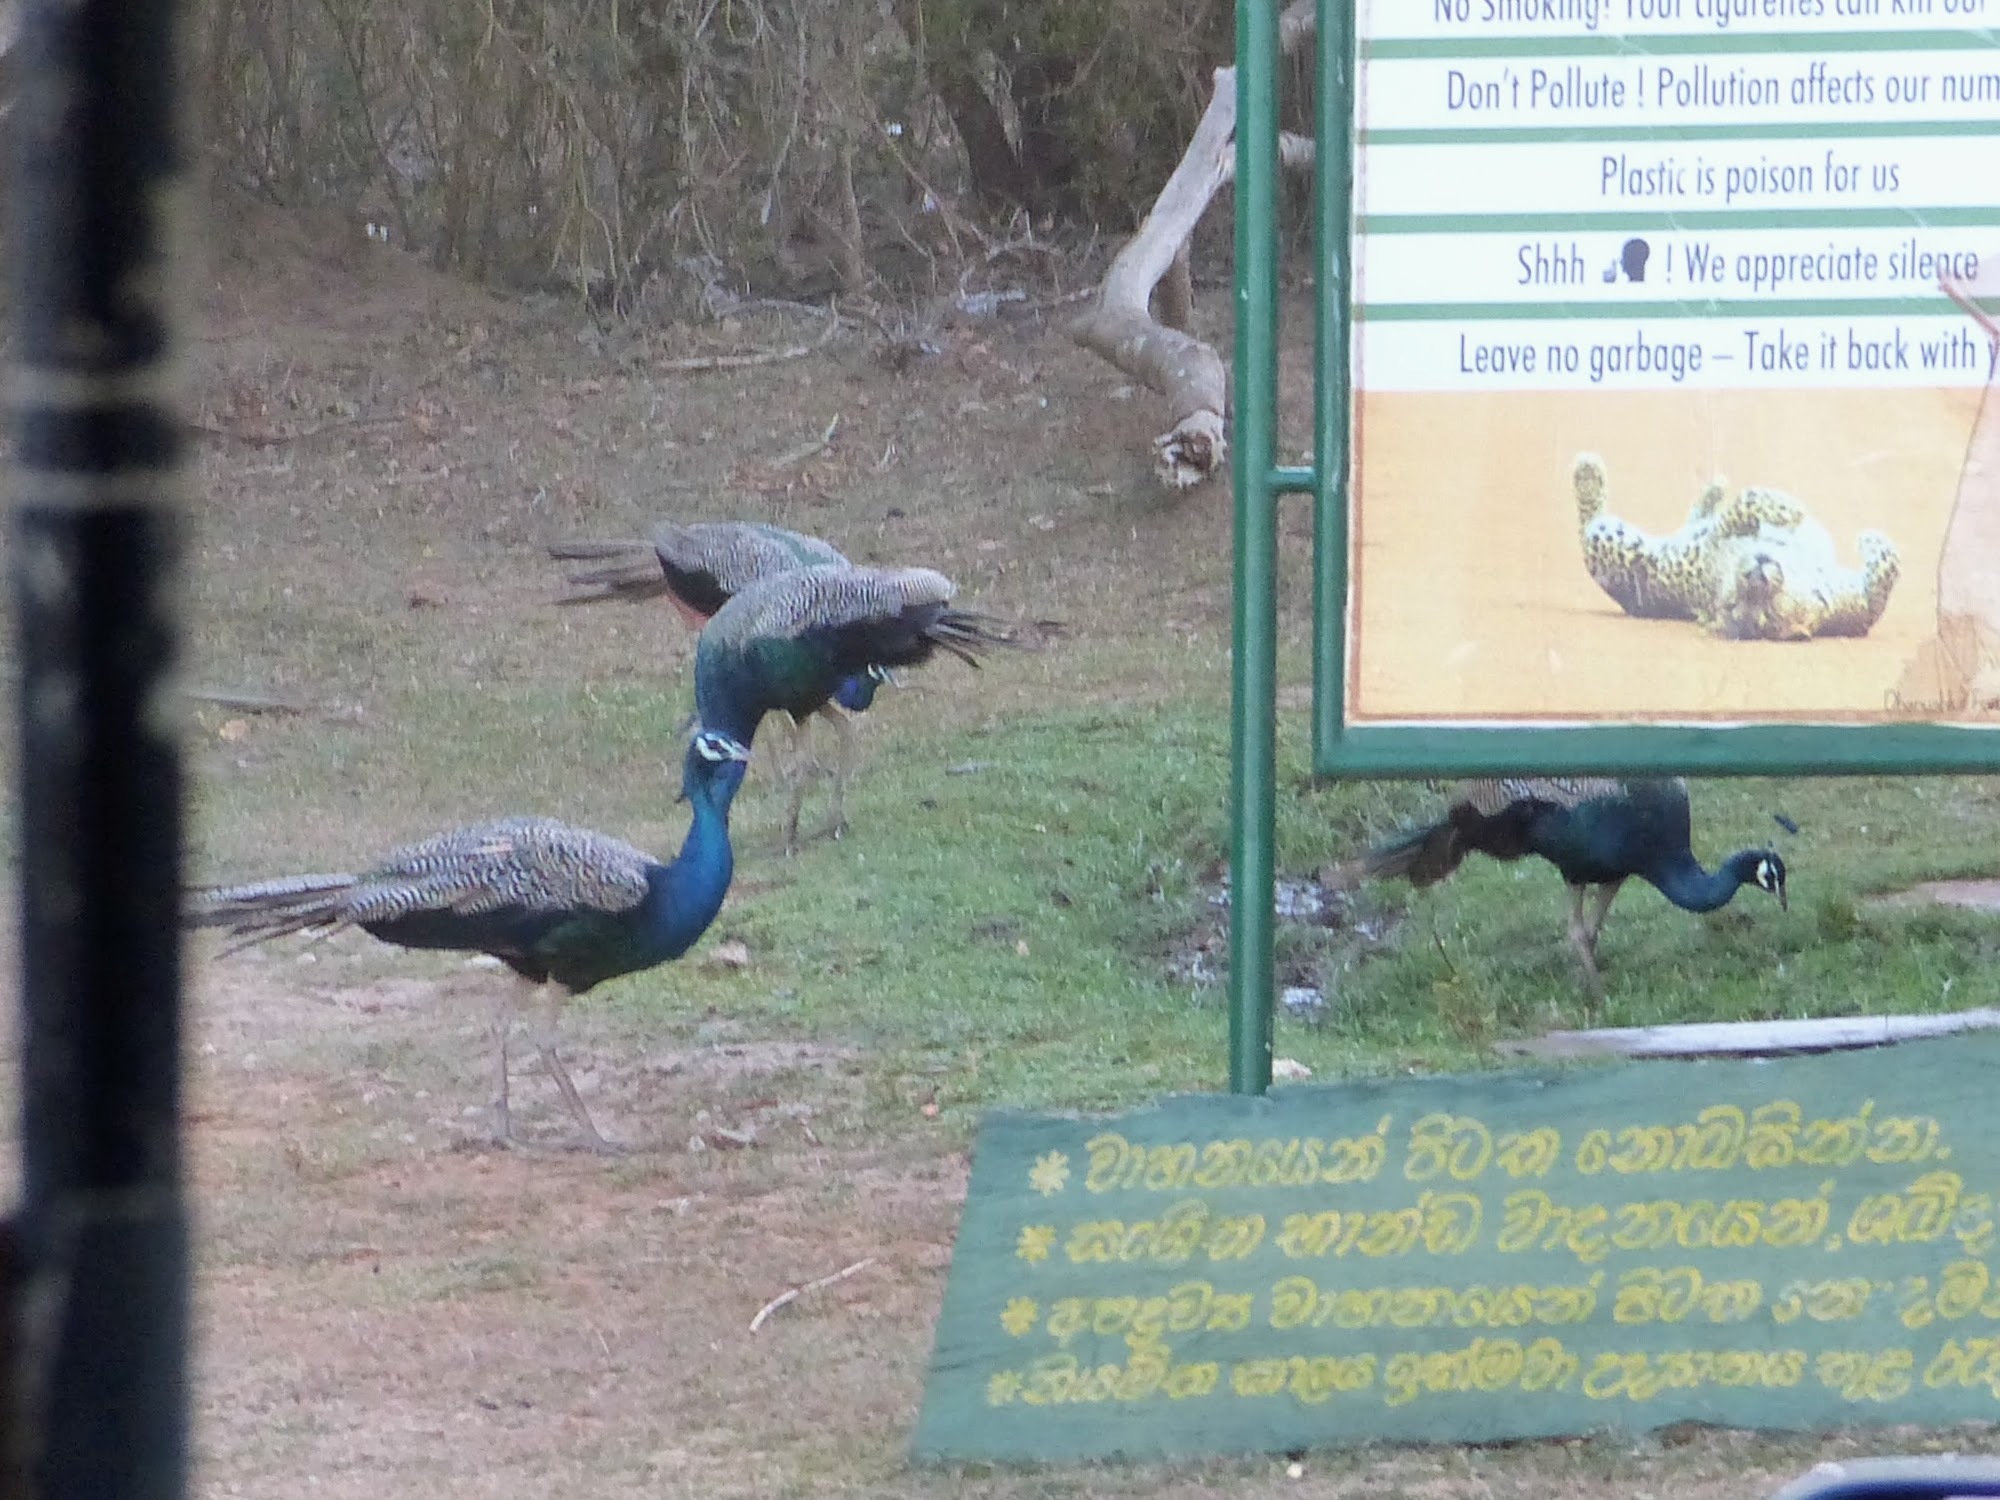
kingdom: Animalia
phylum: Chordata
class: Aves
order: Galliformes
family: Phasianidae
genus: Pavo
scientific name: Pavo cristatus
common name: Indian peafowl
